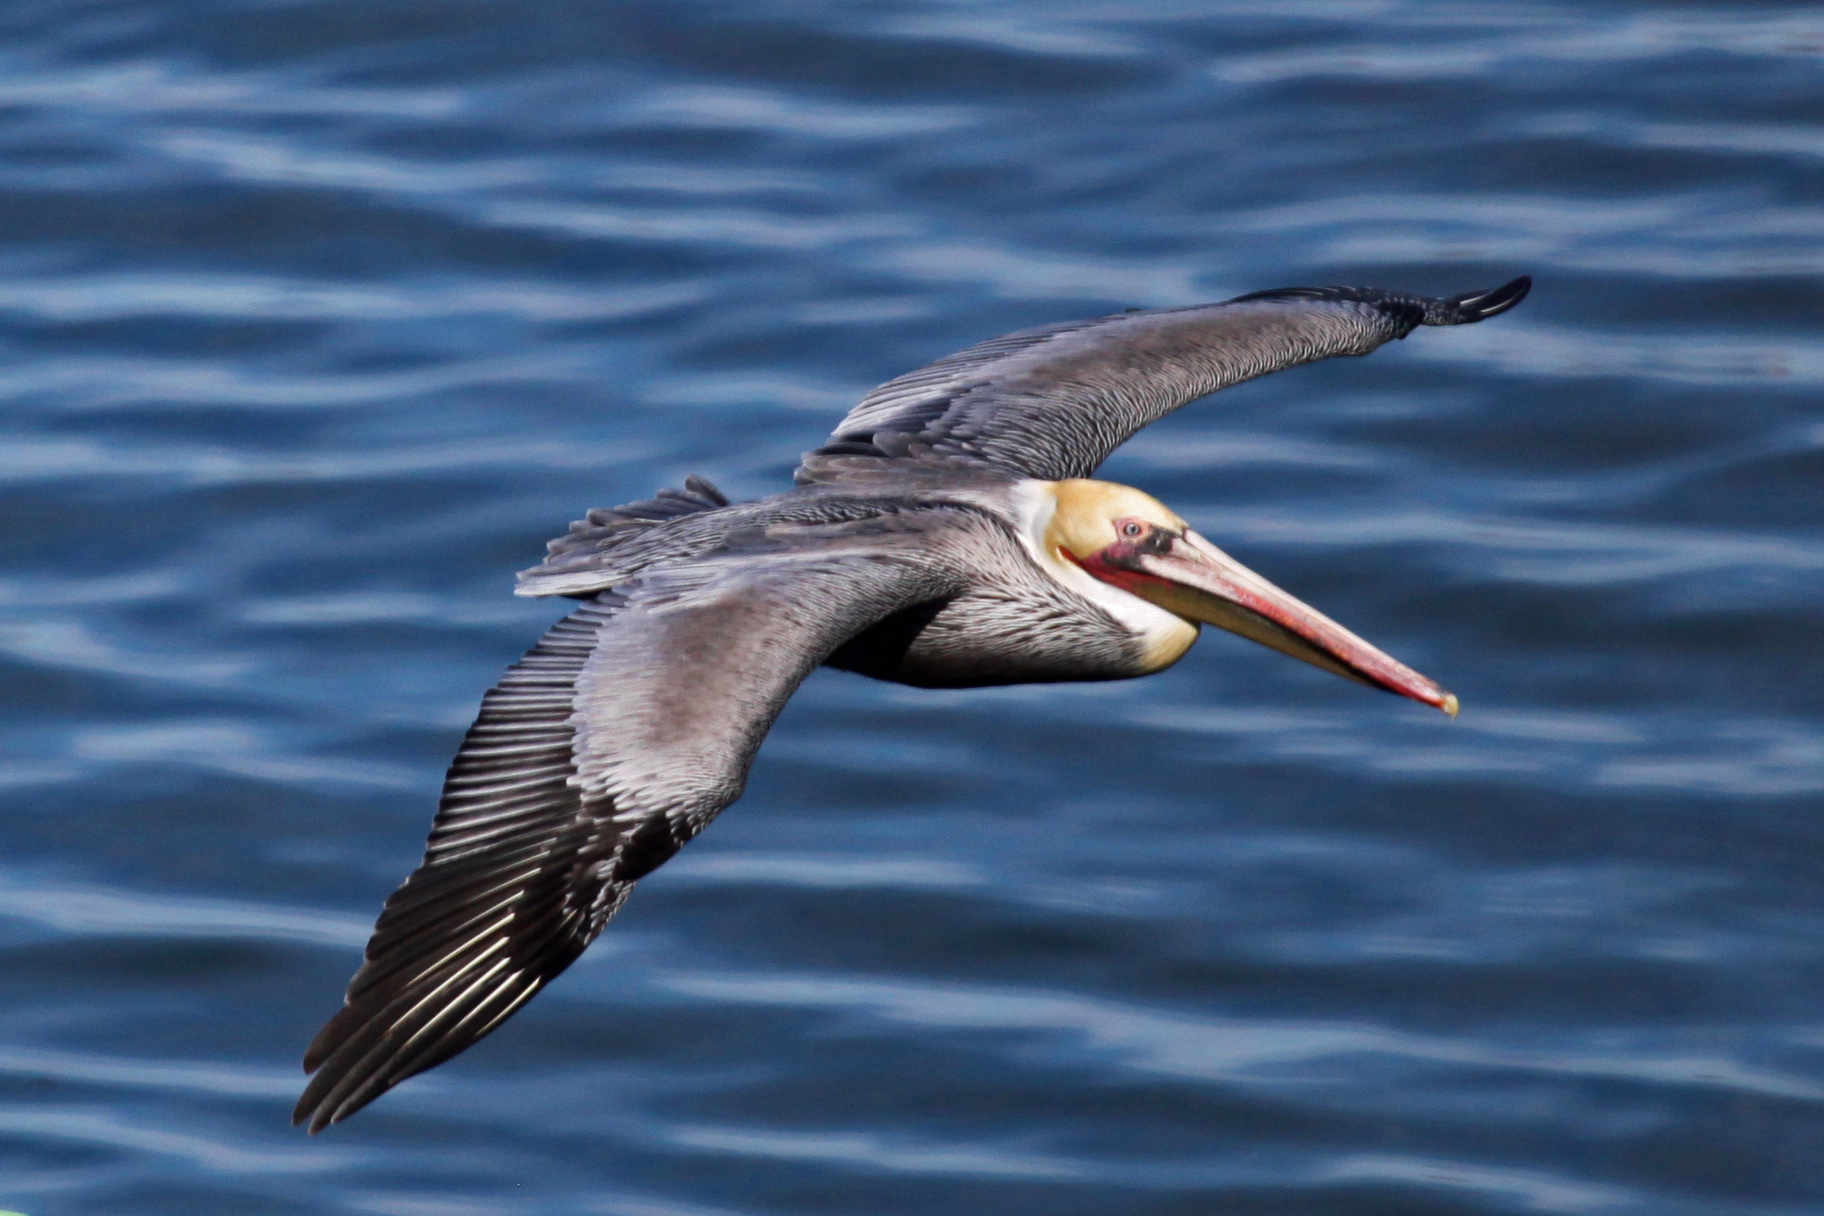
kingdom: Animalia
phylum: Chordata
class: Aves
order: Pelecaniformes
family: Pelecanidae
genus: Pelecanus
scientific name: Pelecanus occidentalis
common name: Brown pelican
